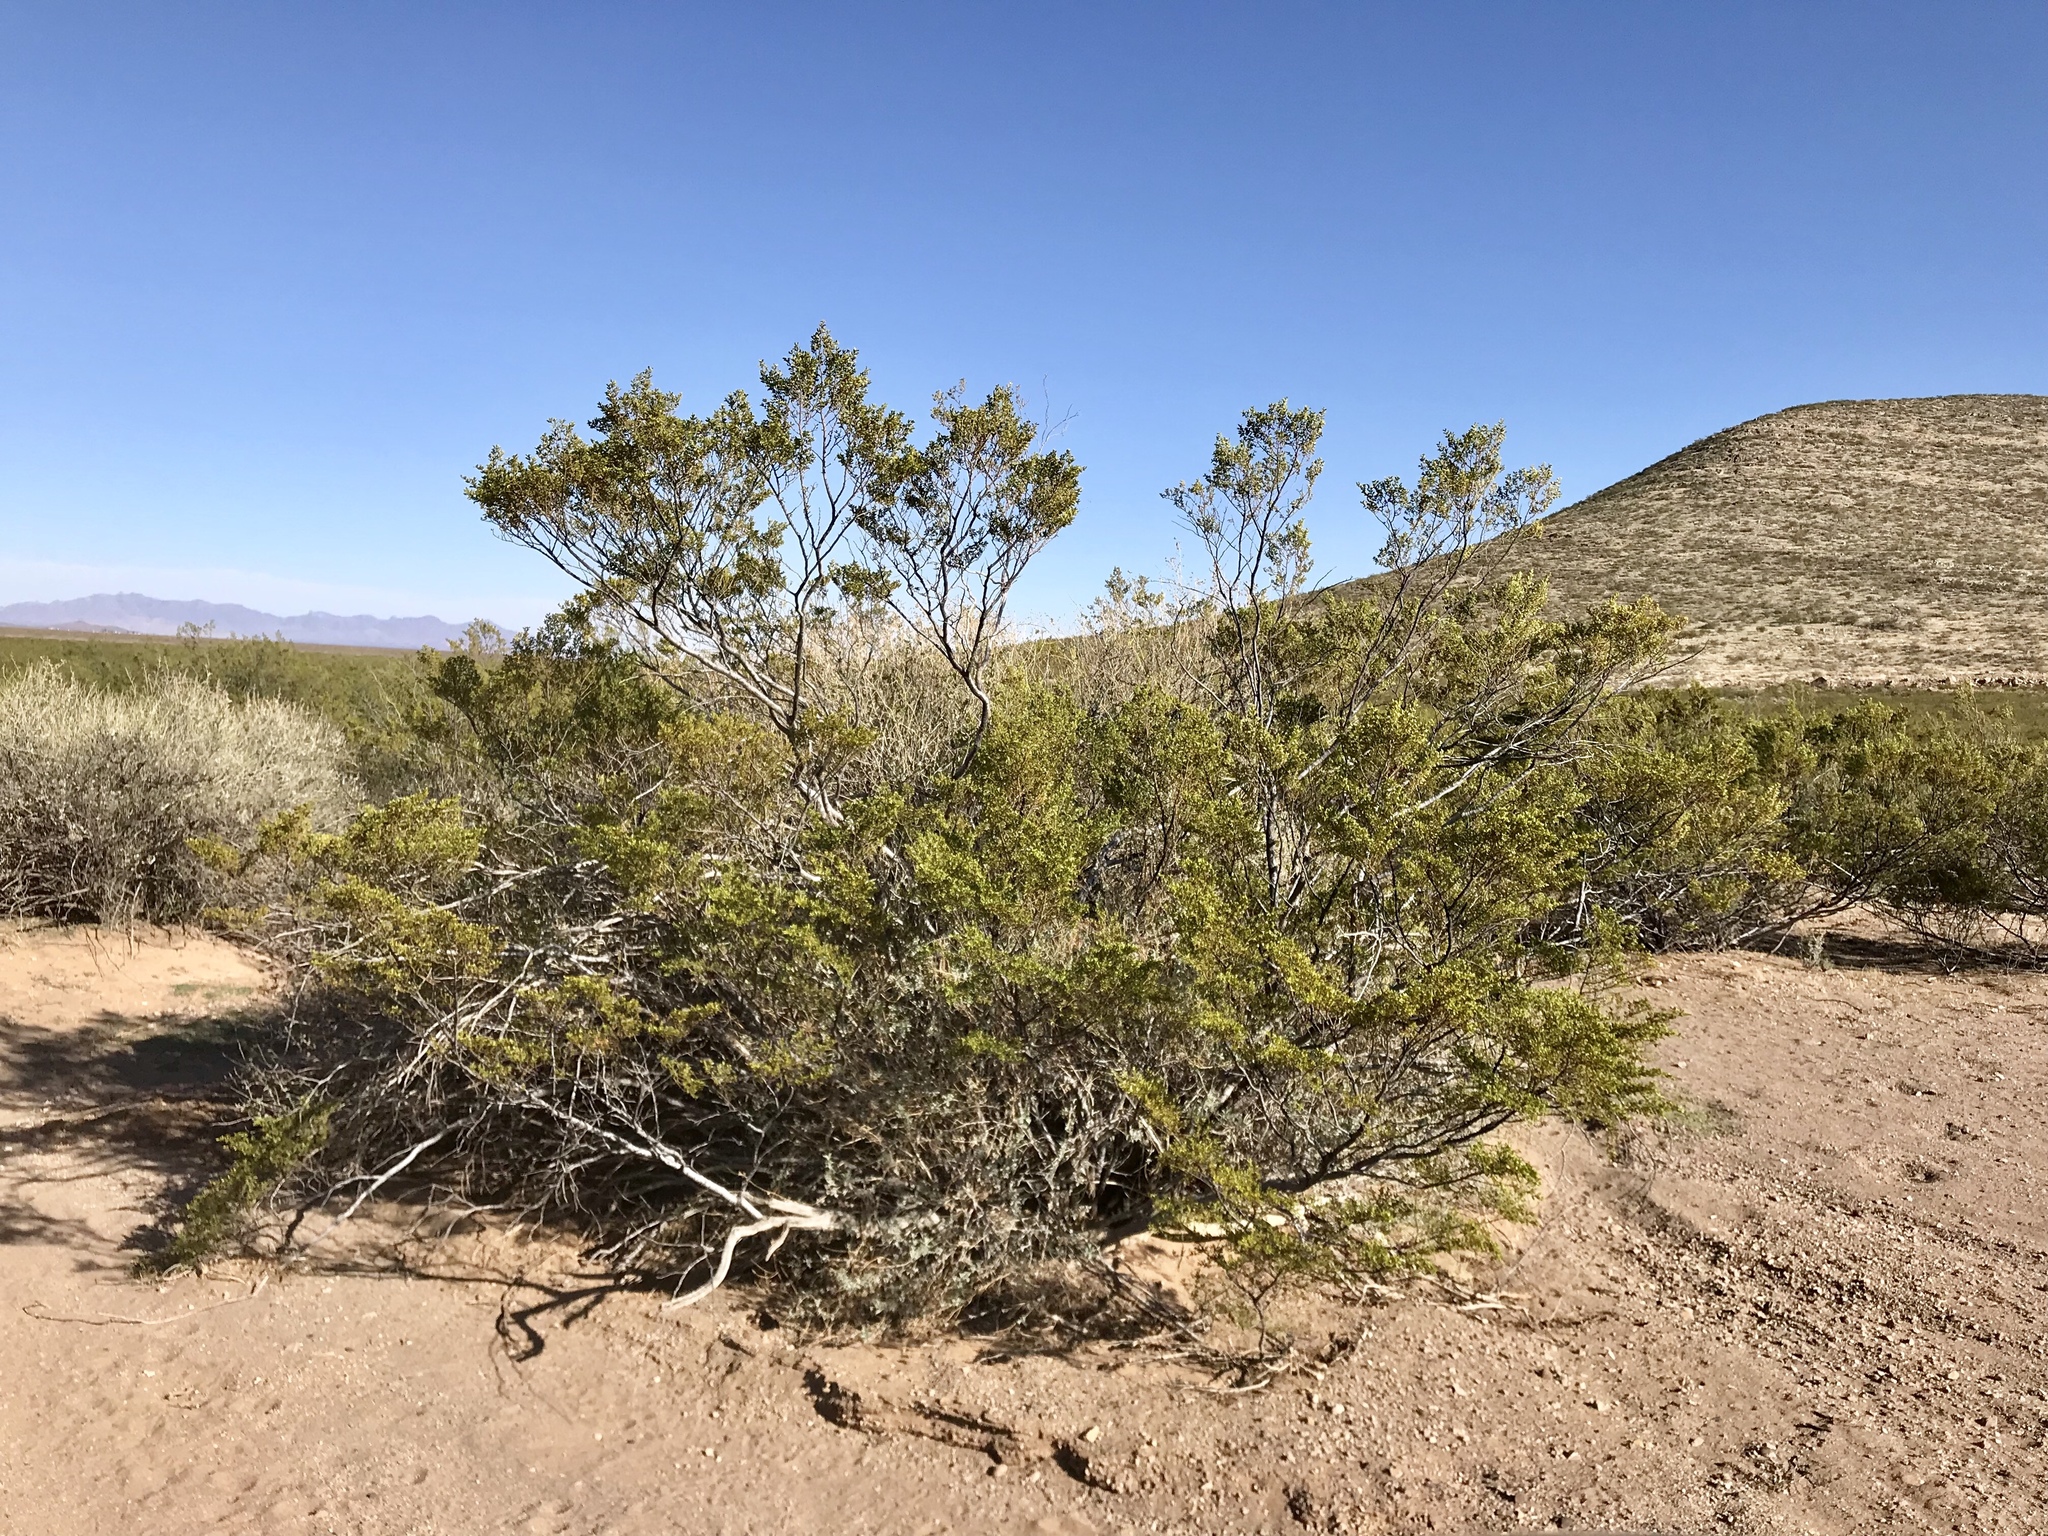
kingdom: Plantae
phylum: Tracheophyta
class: Magnoliopsida
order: Zygophyllales
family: Zygophyllaceae
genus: Larrea
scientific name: Larrea tridentata
